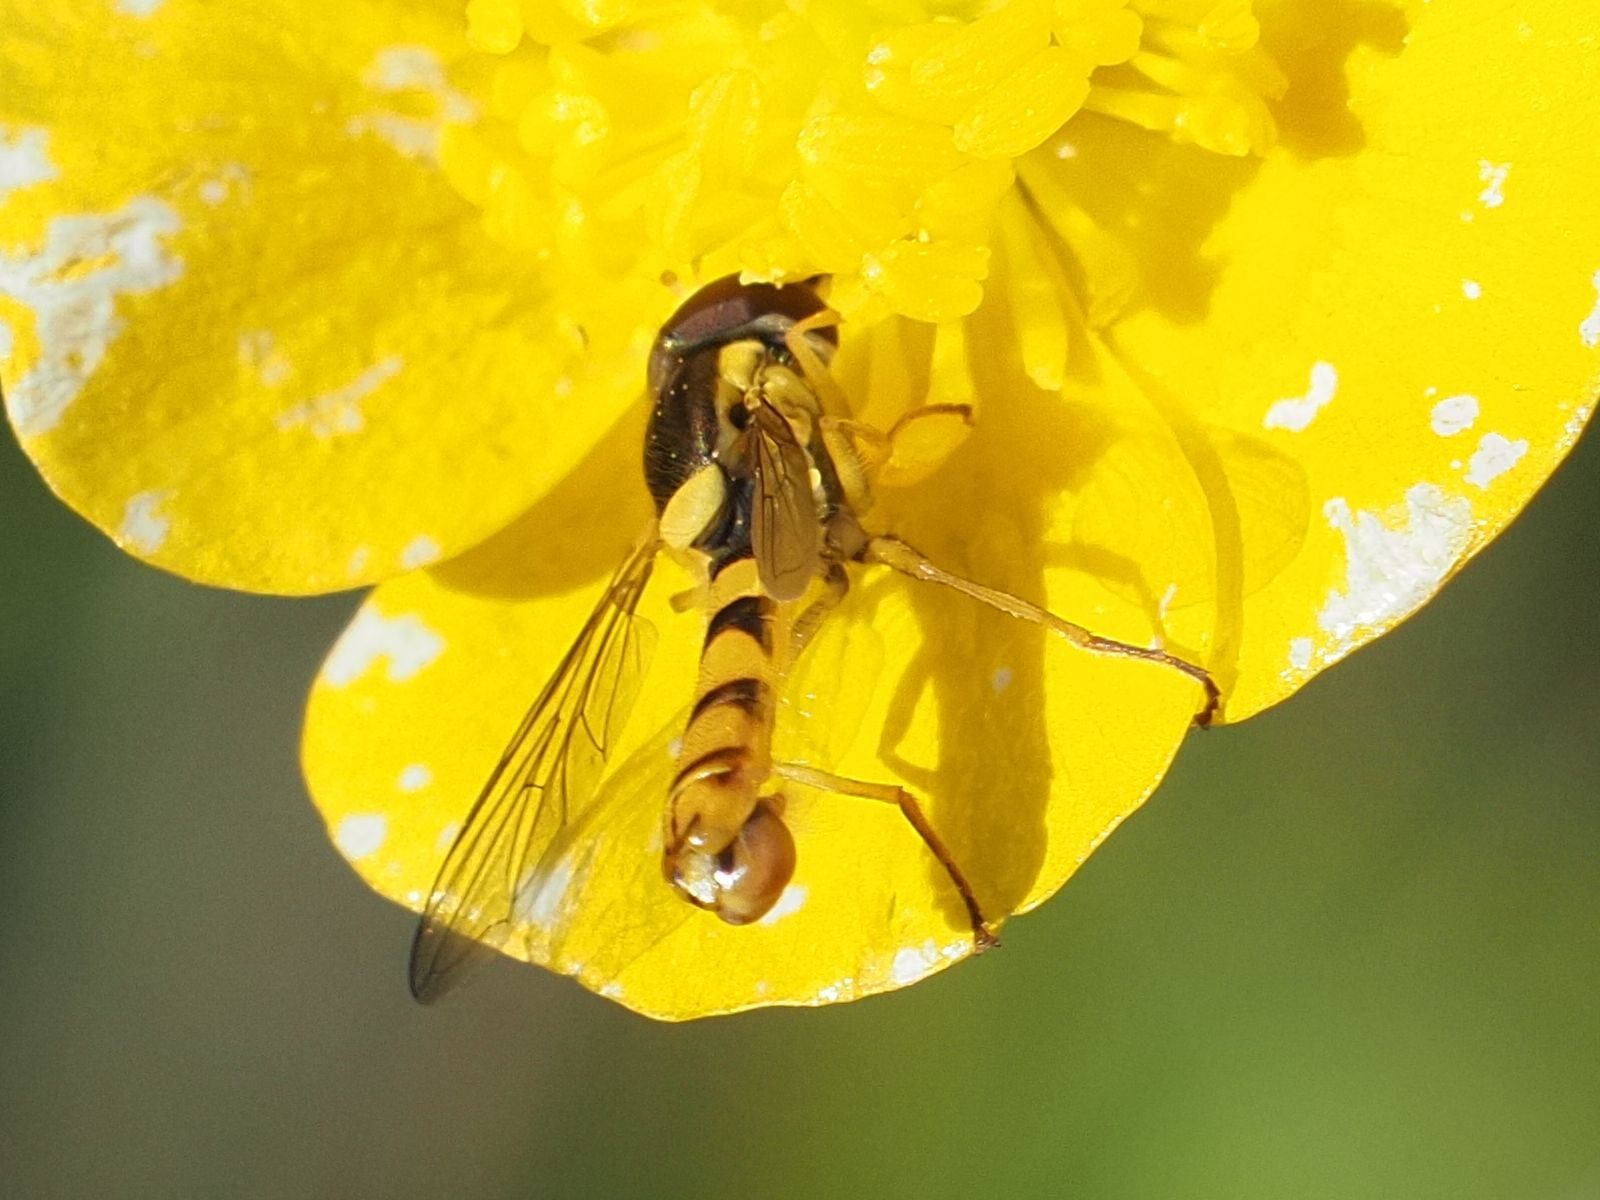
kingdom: Animalia
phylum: Arthropoda
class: Insecta
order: Diptera
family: Syrphidae
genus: Sphaerophoria
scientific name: Sphaerophoria
